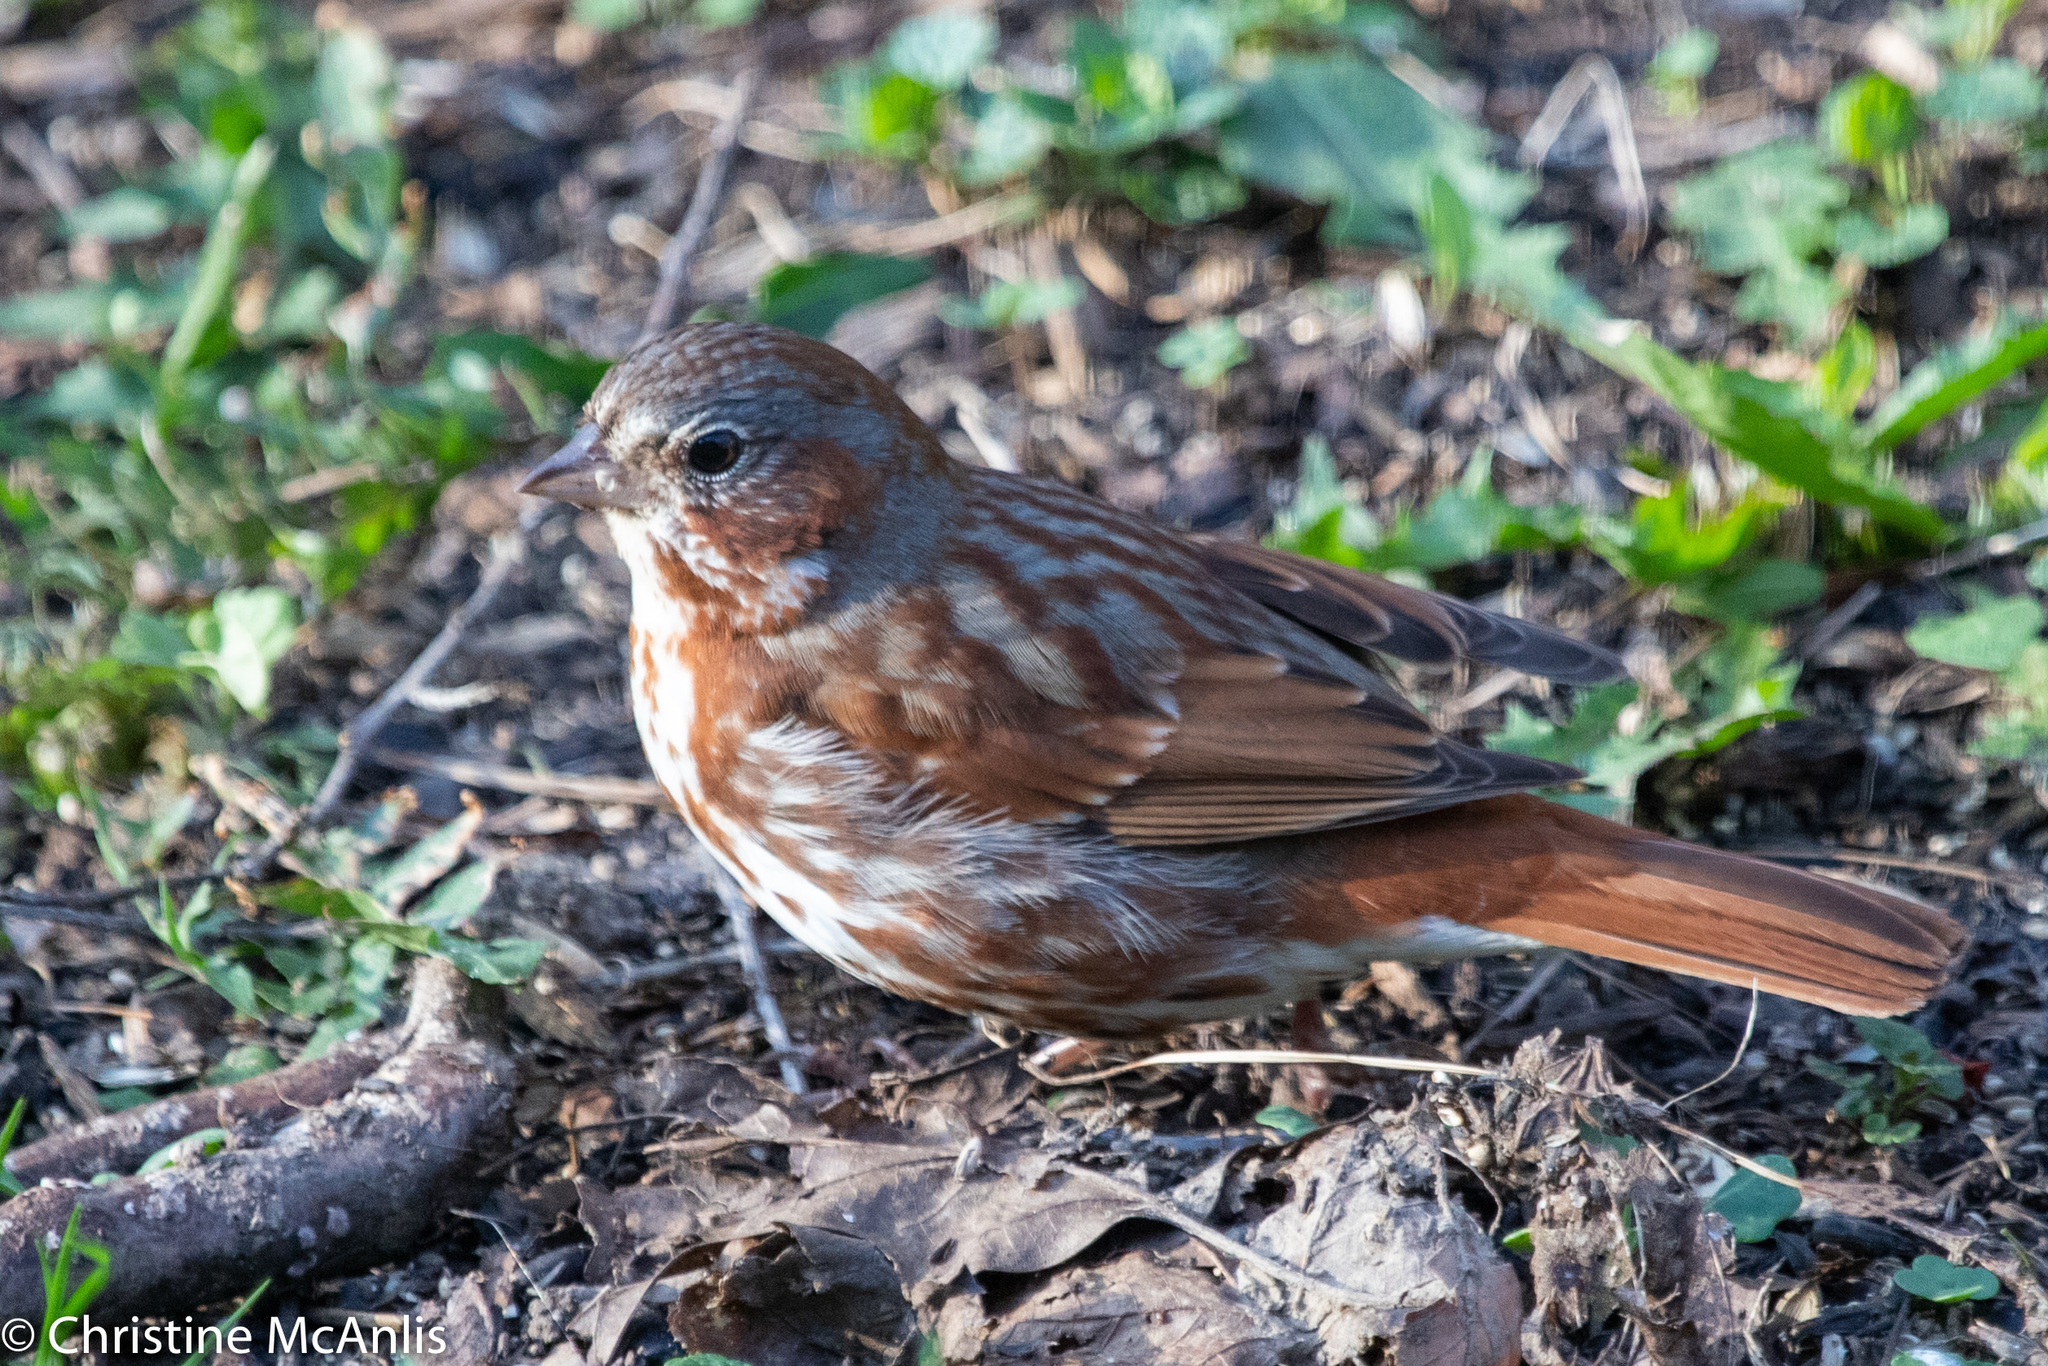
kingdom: Animalia
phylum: Chordata
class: Aves
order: Passeriformes
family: Passerellidae
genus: Passerella
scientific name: Passerella iliaca
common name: Fox sparrow
